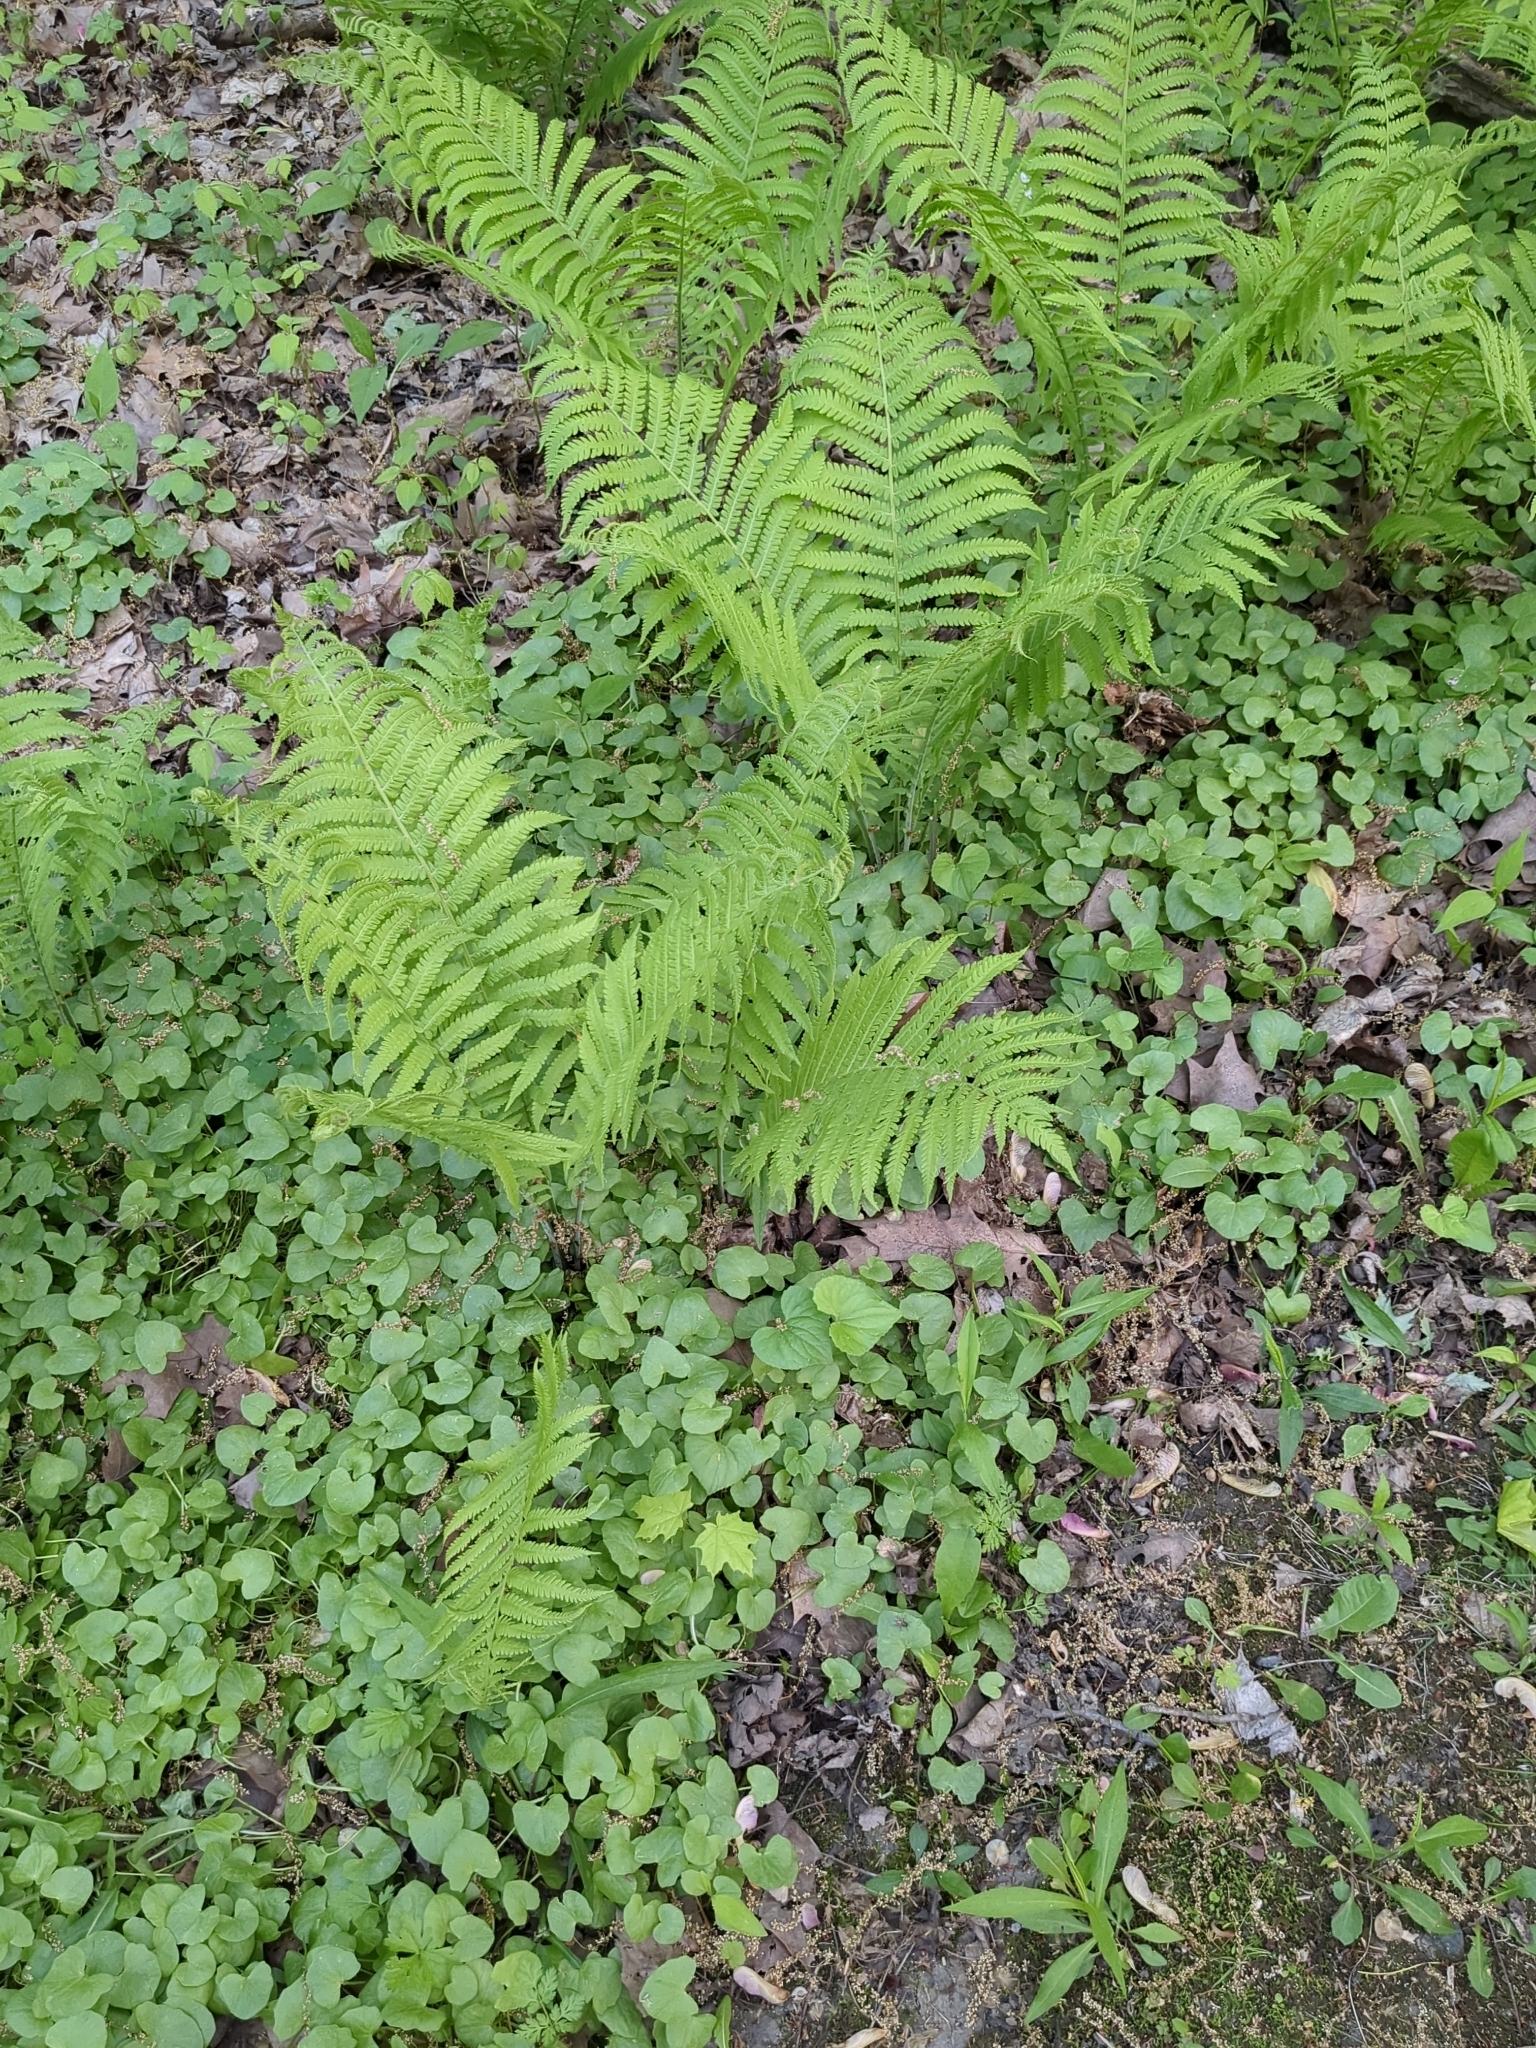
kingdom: Plantae
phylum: Tracheophyta
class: Polypodiopsida
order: Polypodiales
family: Onocleaceae
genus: Matteuccia
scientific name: Matteuccia struthiopteris
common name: Ostrich fern
